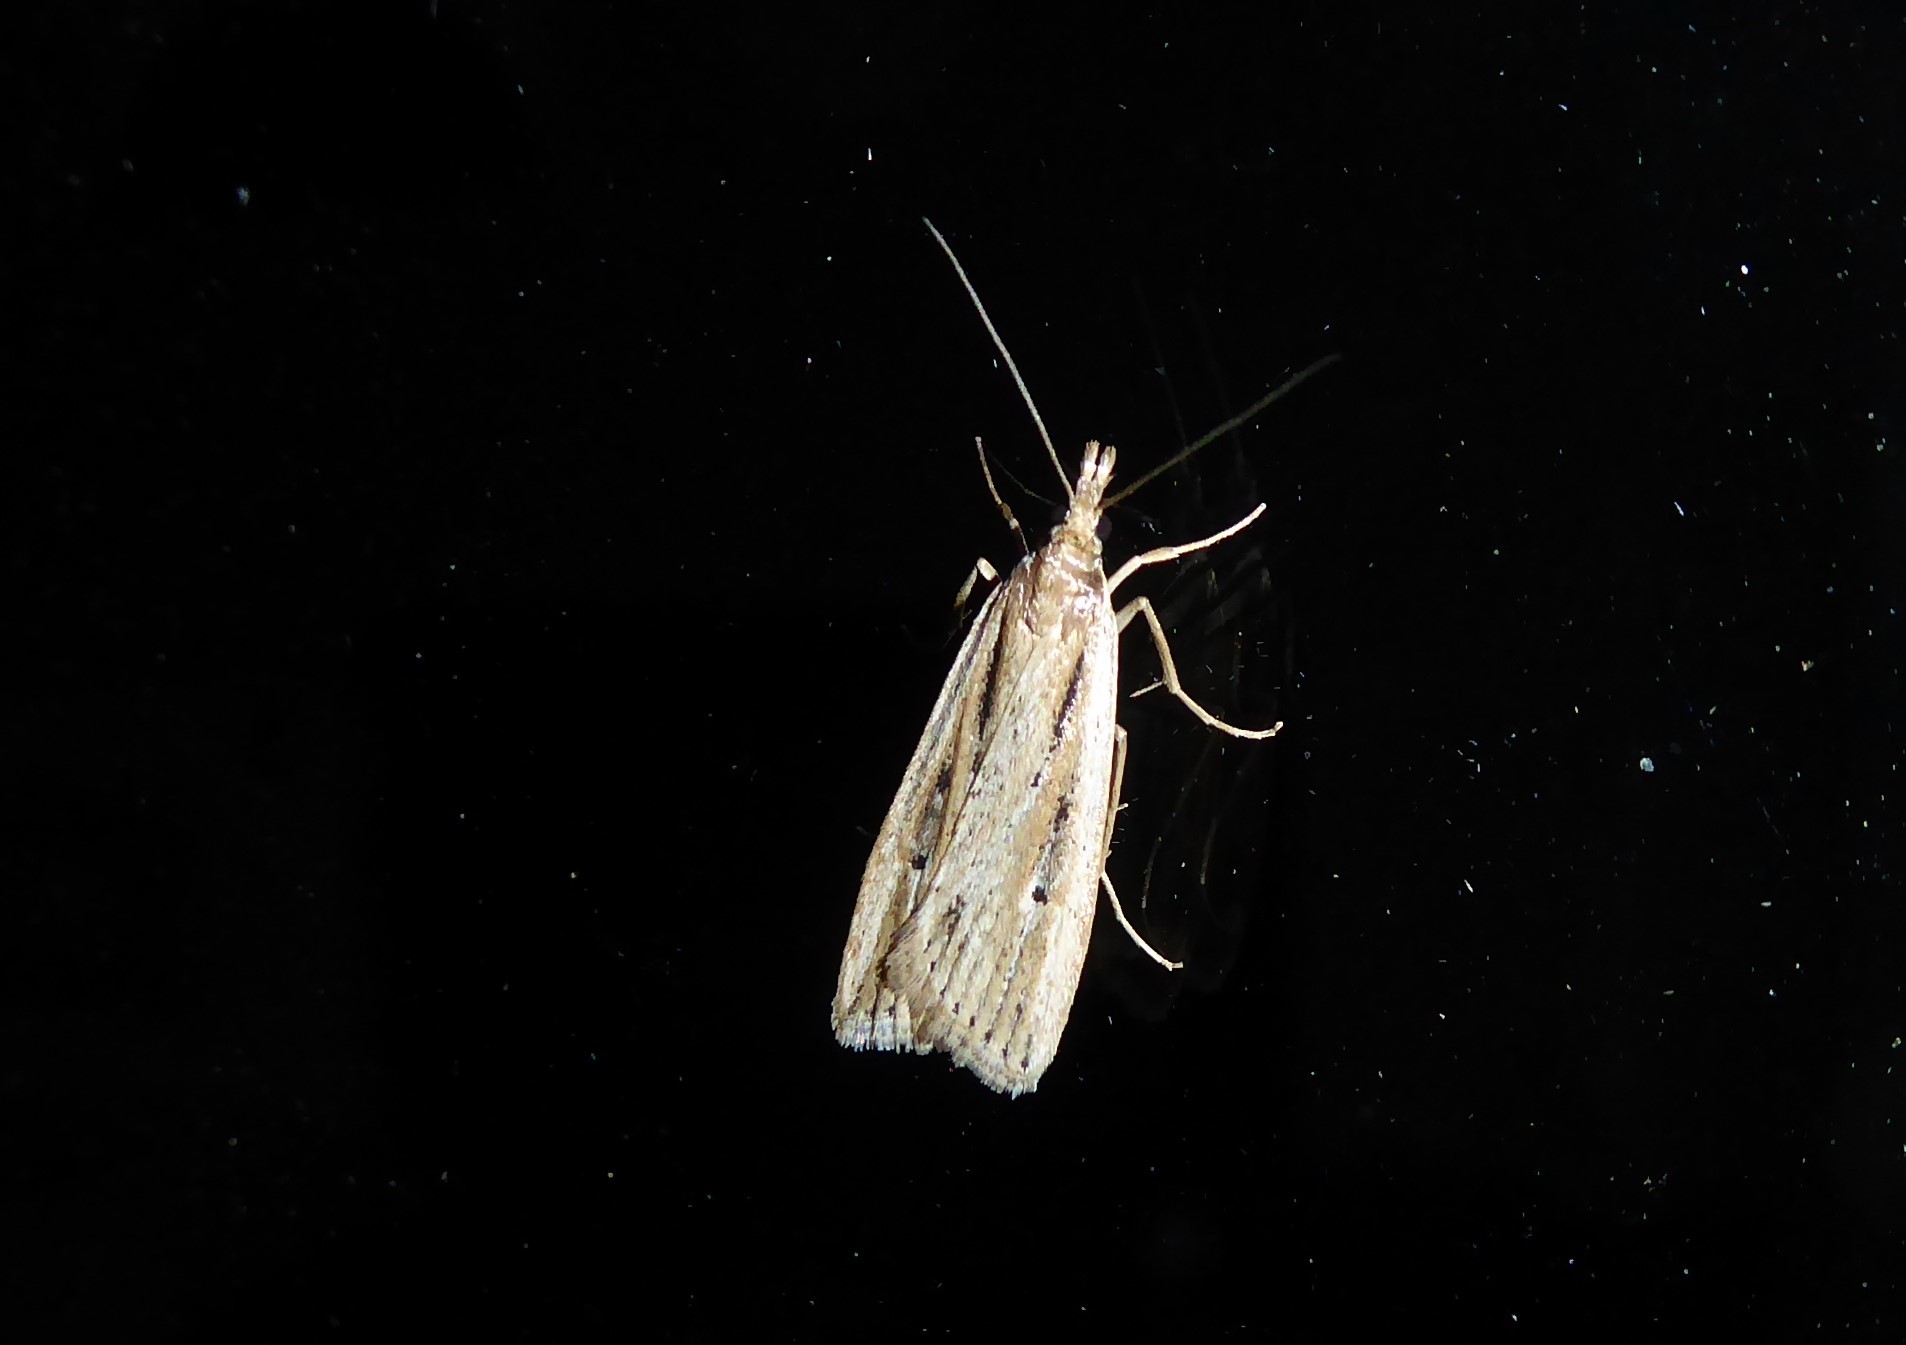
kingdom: Animalia
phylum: Arthropoda
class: Insecta
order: Lepidoptera
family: Crambidae
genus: Eudonia
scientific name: Eudonia sabulosella
